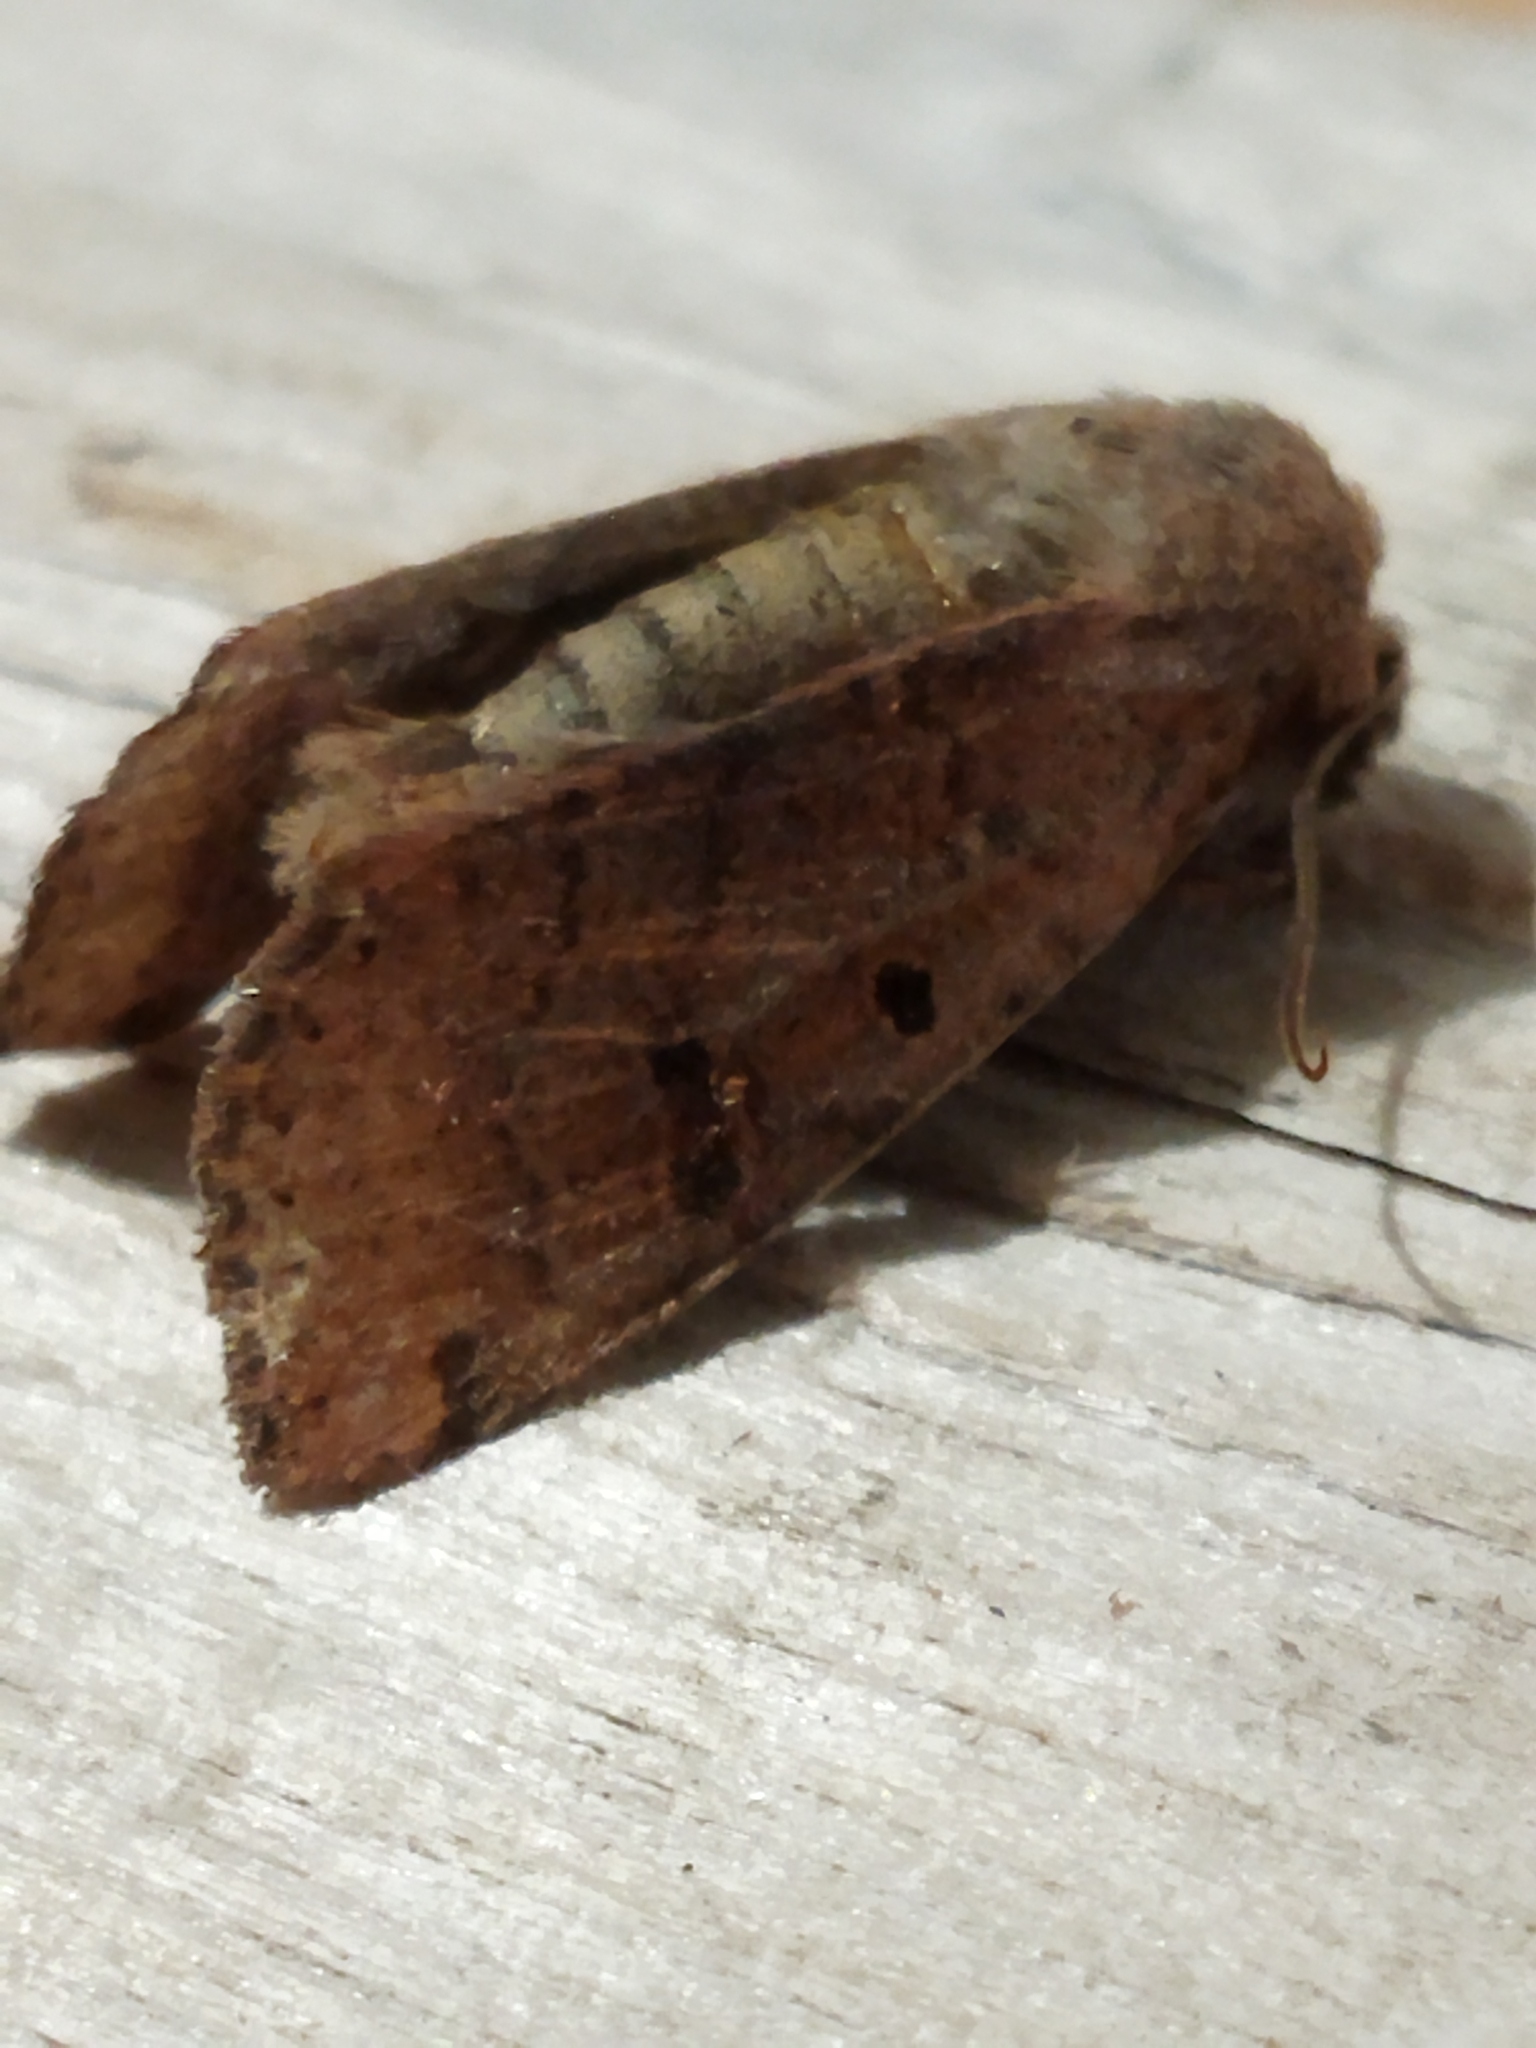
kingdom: Animalia
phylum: Arthropoda
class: Insecta
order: Lepidoptera
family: Noctuidae
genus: Agrochola
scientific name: Agrochola lychnidis
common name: Beaded chestnut
